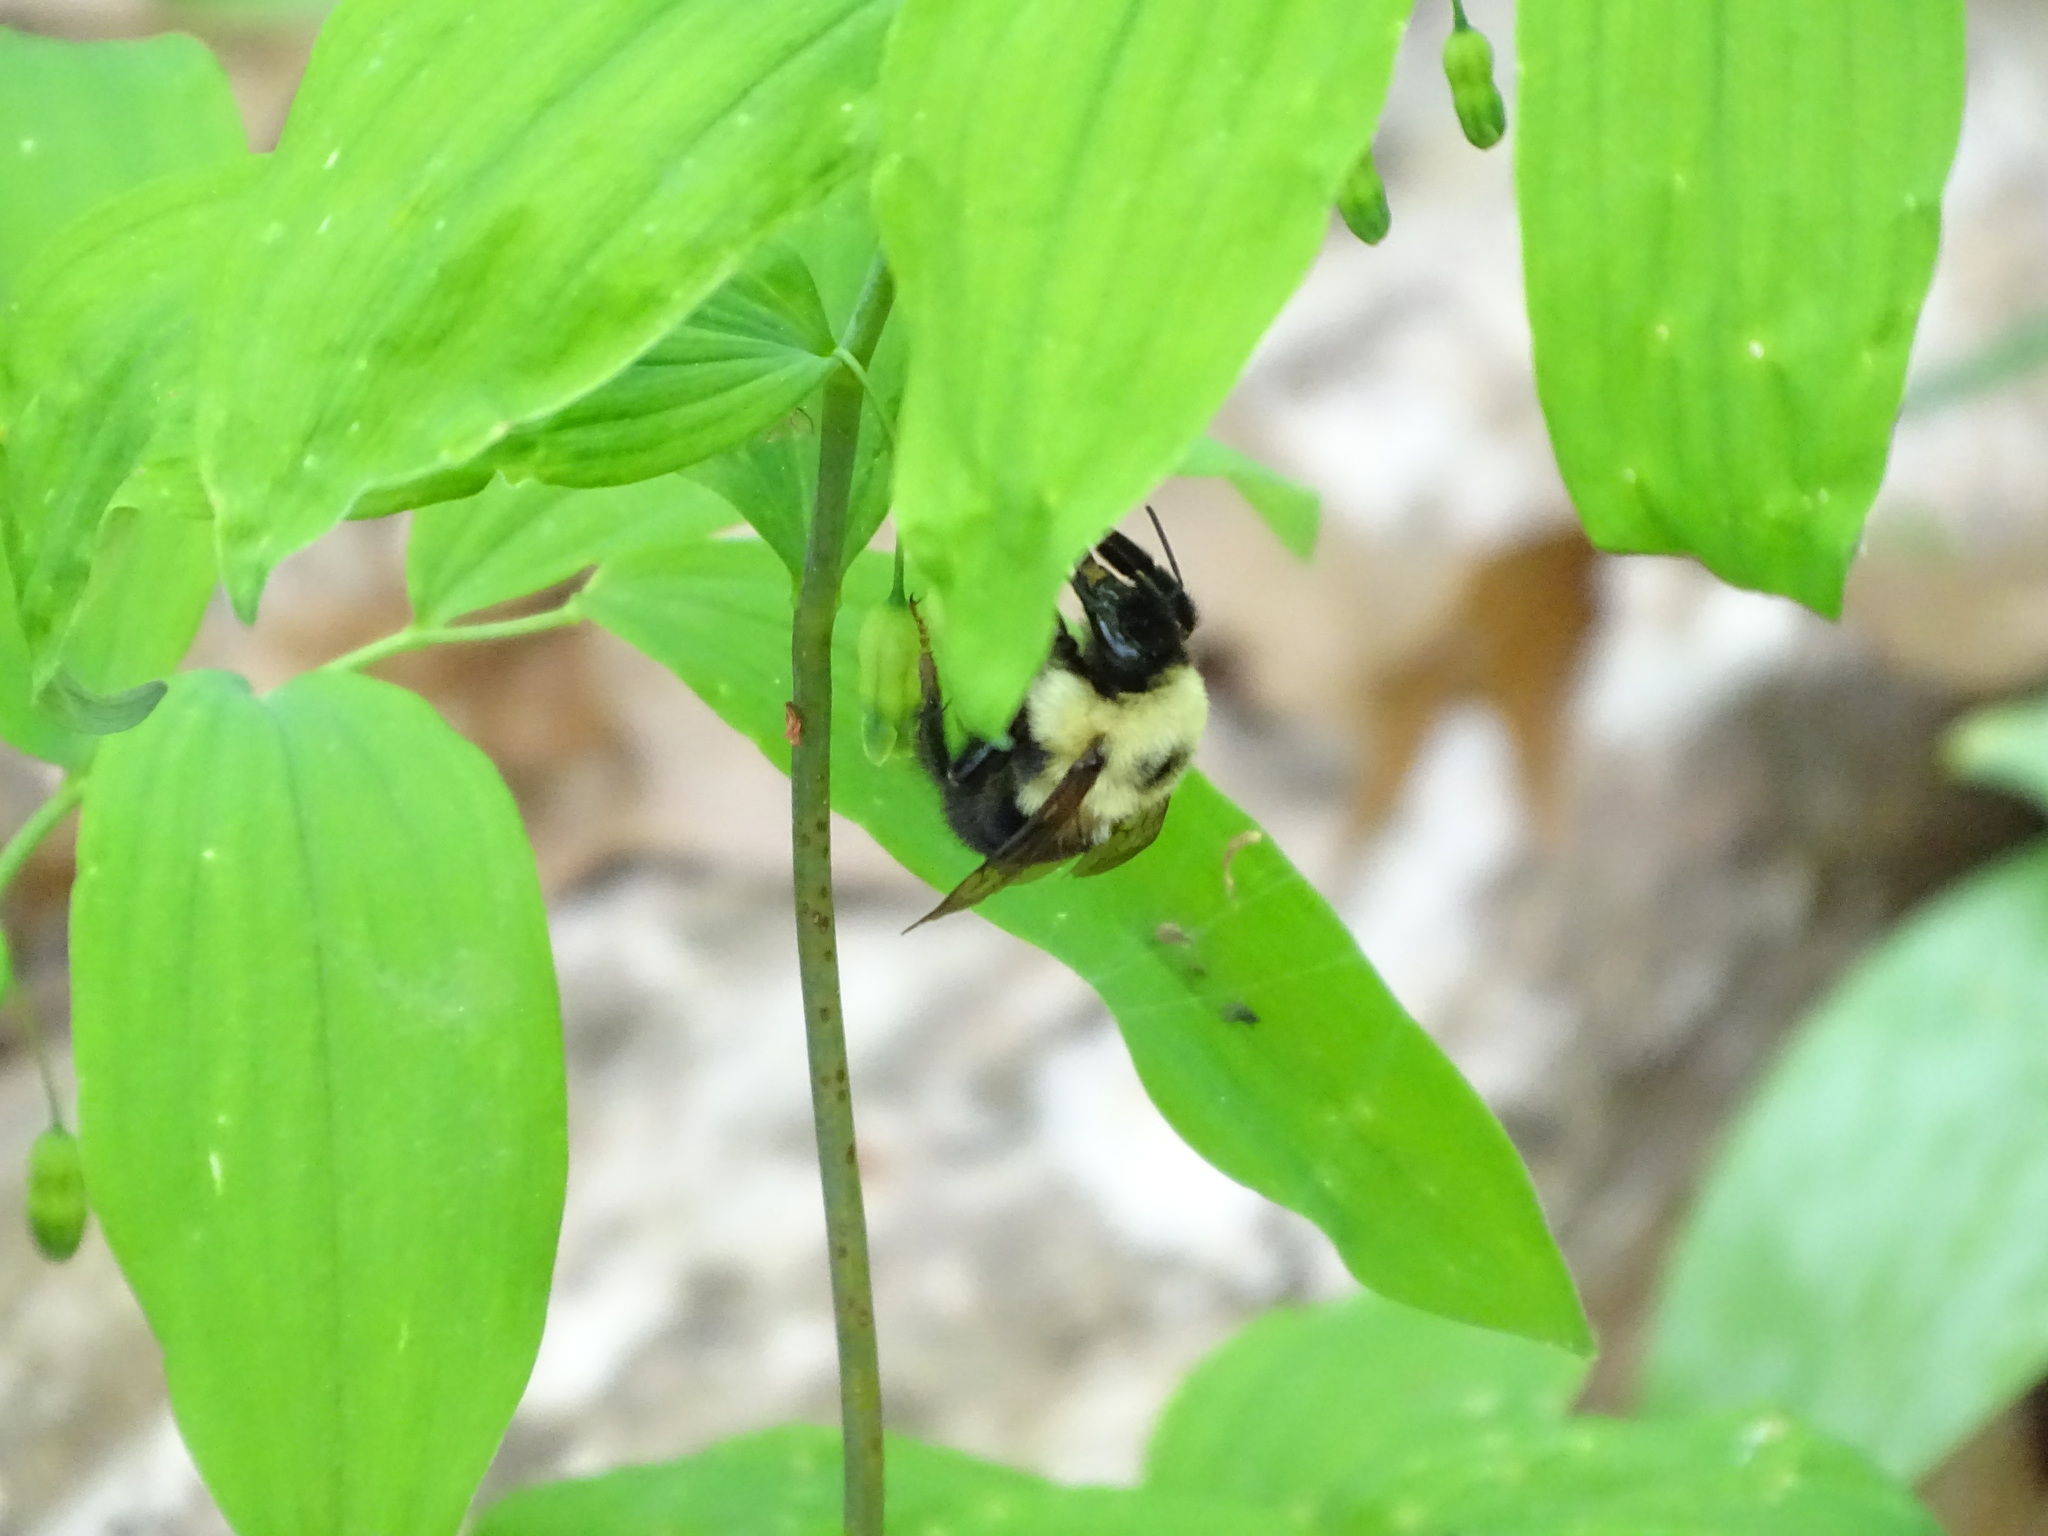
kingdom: Animalia
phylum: Arthropoda
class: Insecta
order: Hymenoptera
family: Apidae
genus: Bombus
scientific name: Bombus bimaculatus
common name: Two-spotted bumble bee
